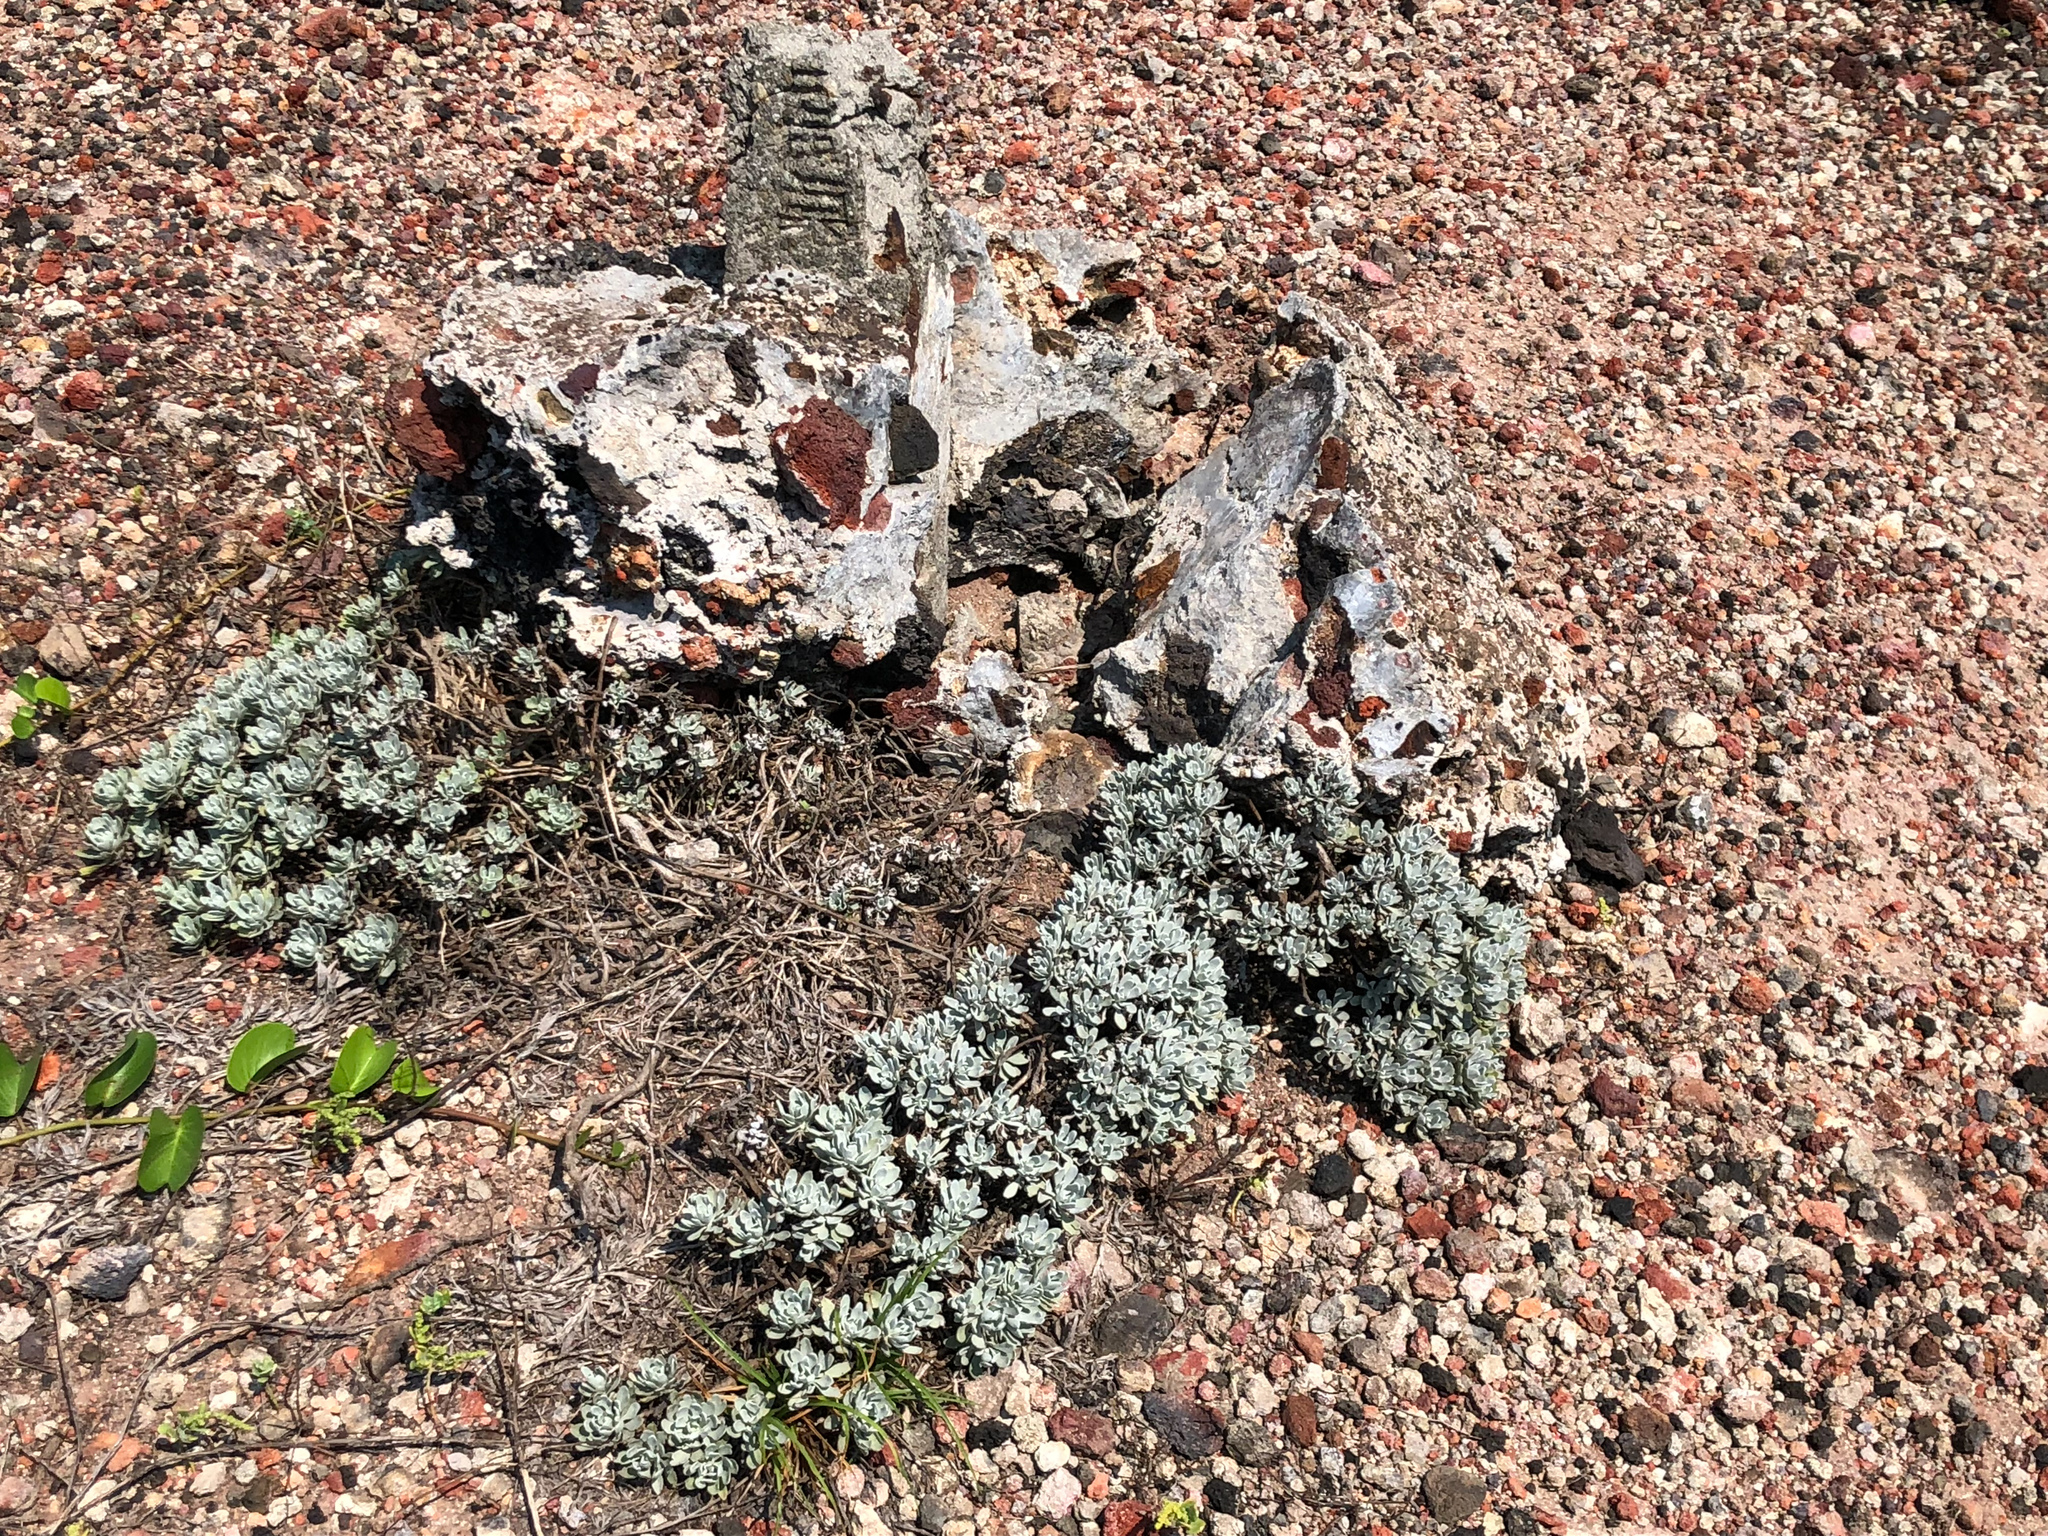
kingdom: Plantae
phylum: Tracheophyta
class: Magnoliopsida
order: Asterales
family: Asteraceae
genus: Crossostephium
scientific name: Crossostephium chinense
